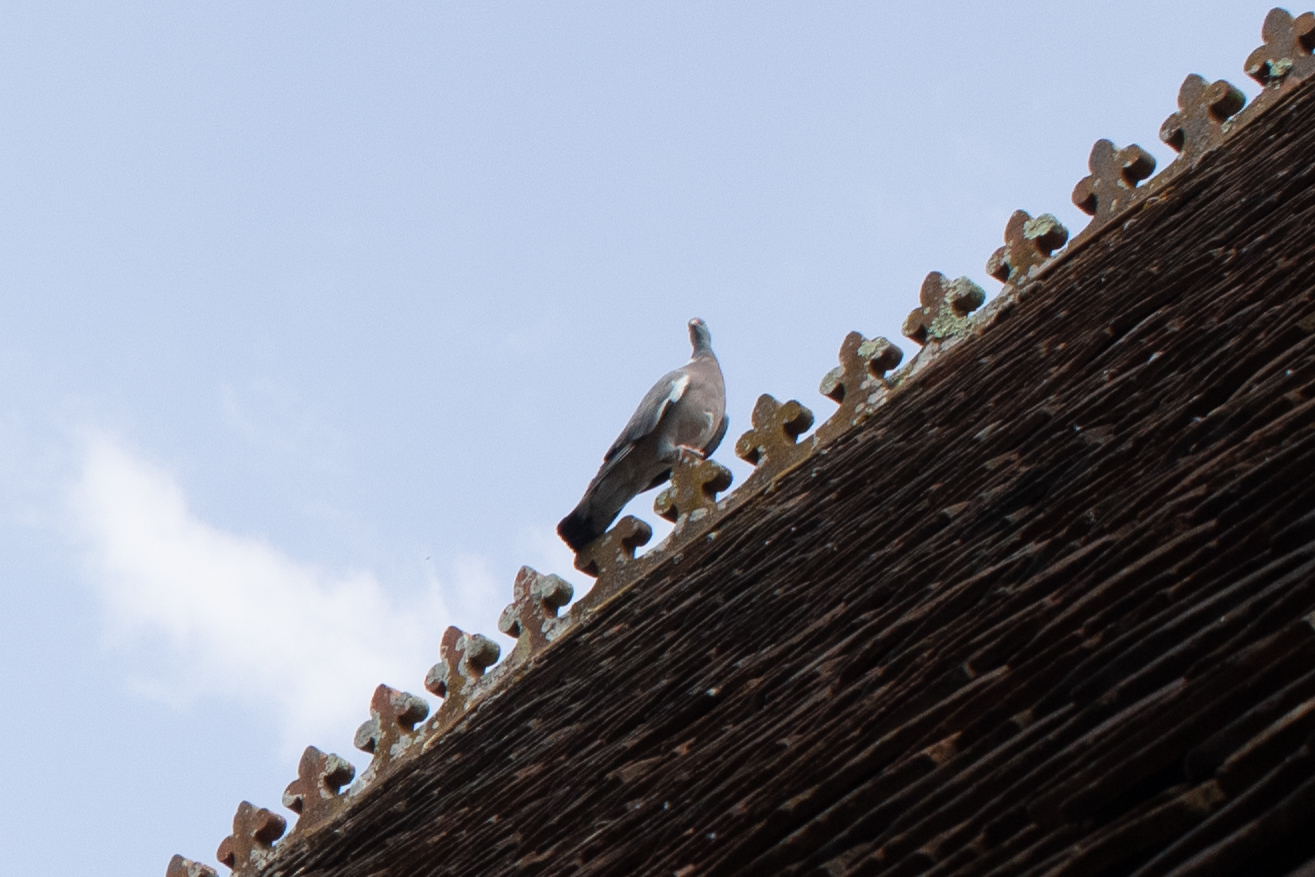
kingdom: Animalia
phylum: Chordata
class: Aves
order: Columbiformes
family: Columbidae
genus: Columba
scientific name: Columba palumbus
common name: Common wood pigeon
